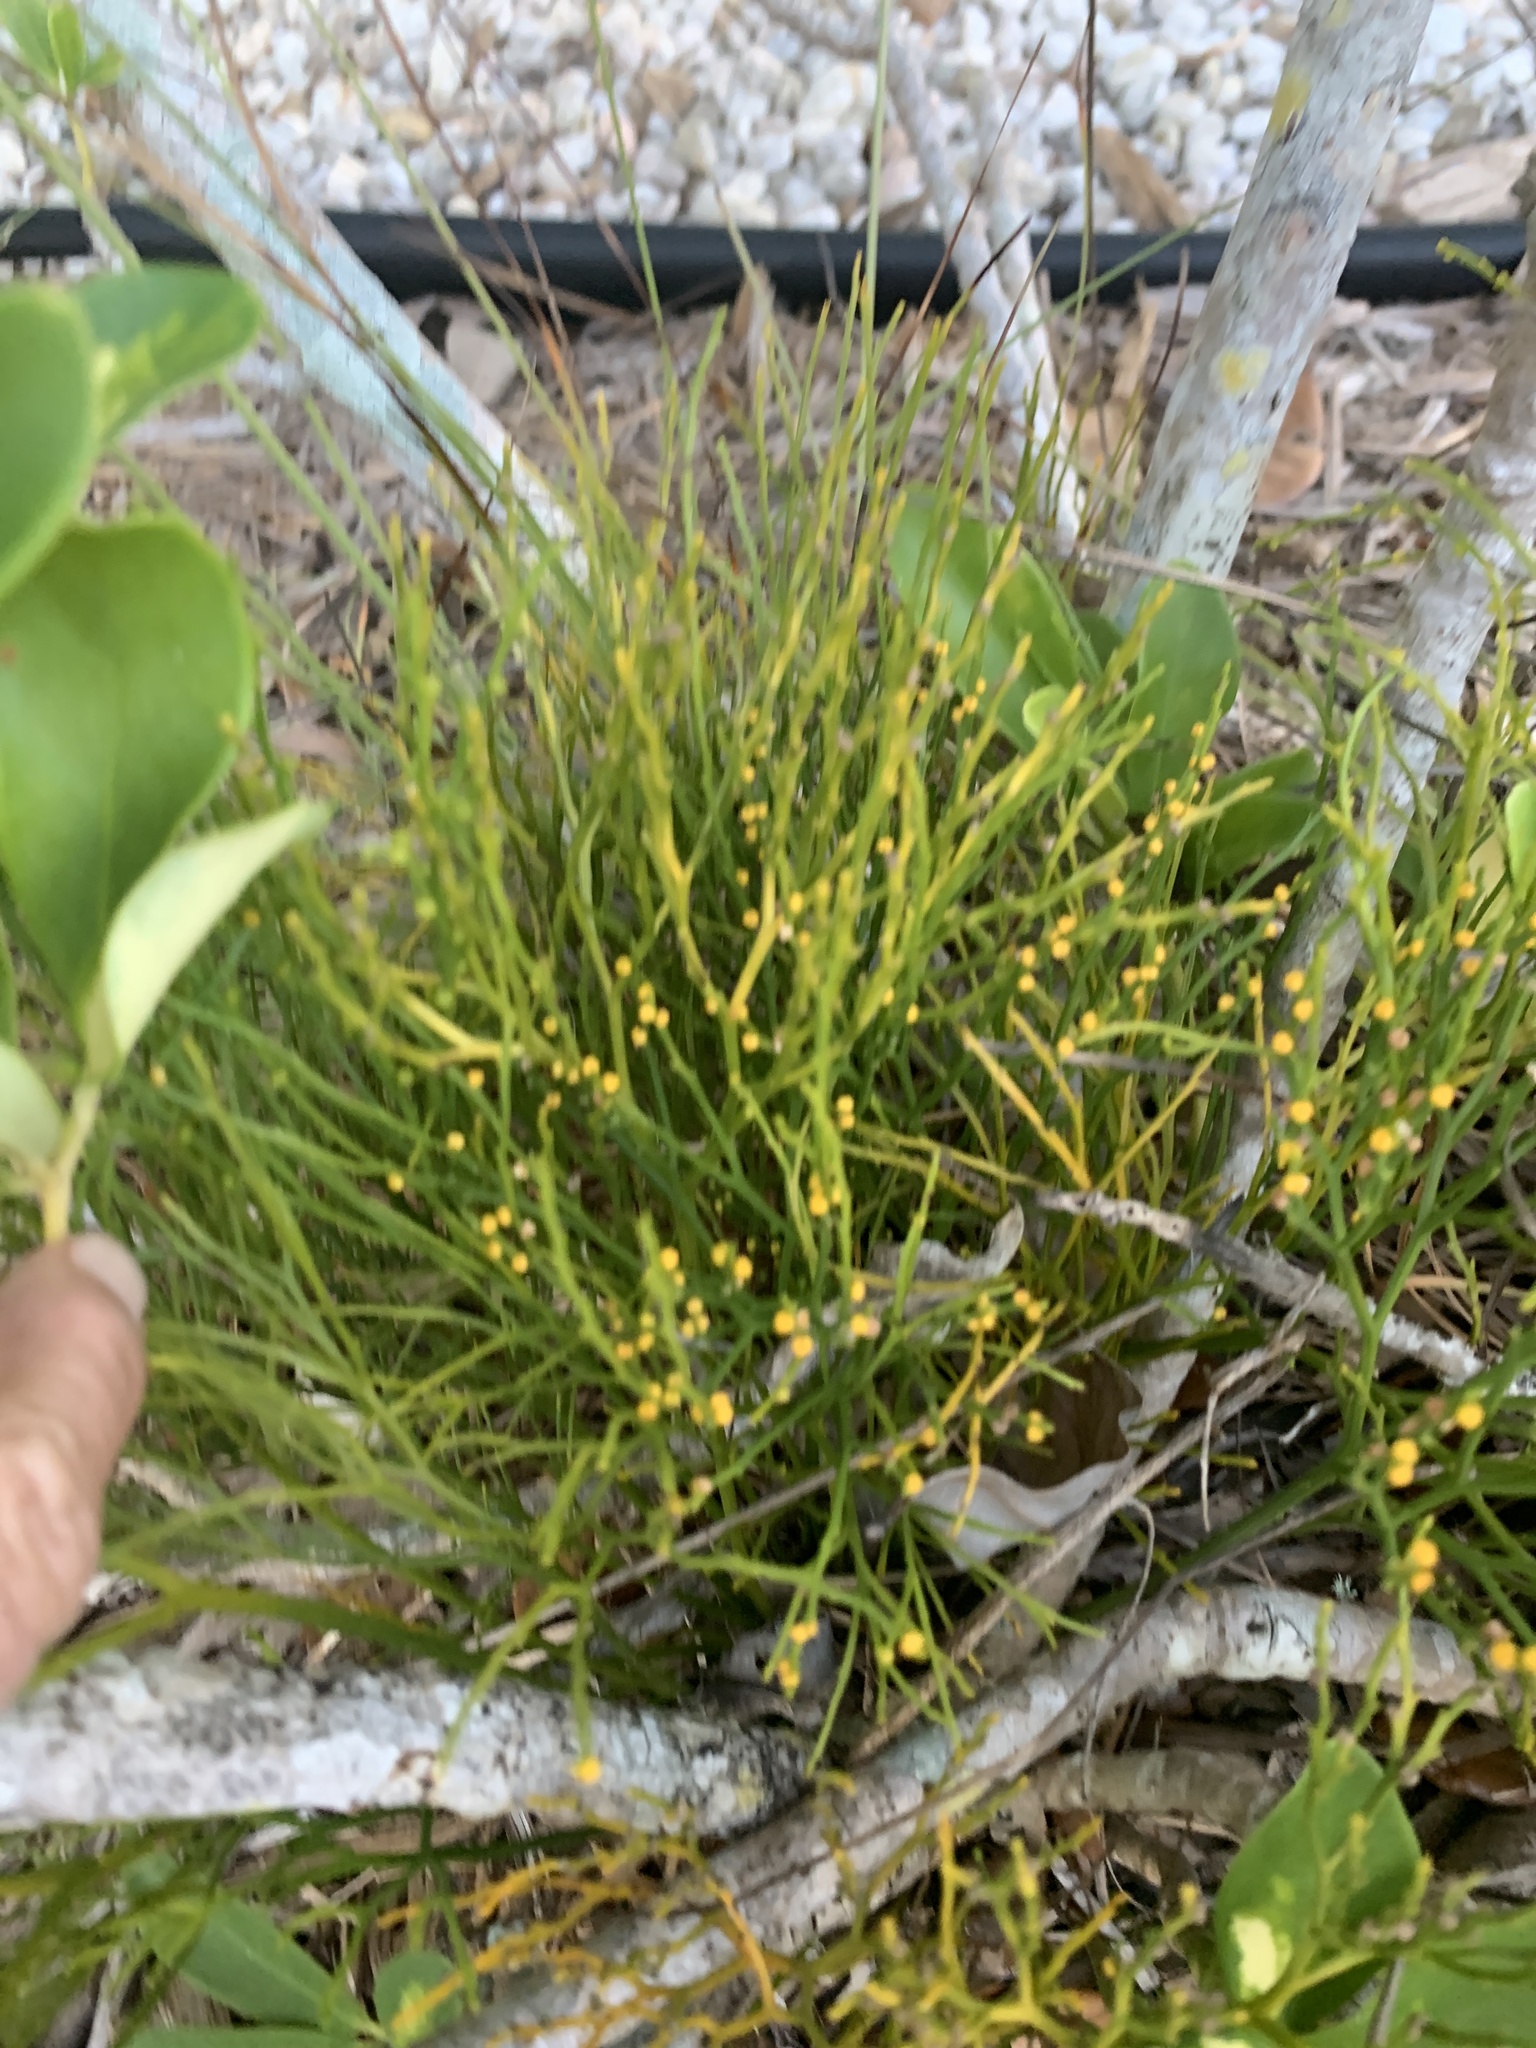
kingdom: Plantae
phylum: Tracheophyta
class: Polypodiopsida
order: Psilotales
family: Psilotaceae
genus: Psilotum
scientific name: Psilotum nudum
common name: Skeleton fork fern
